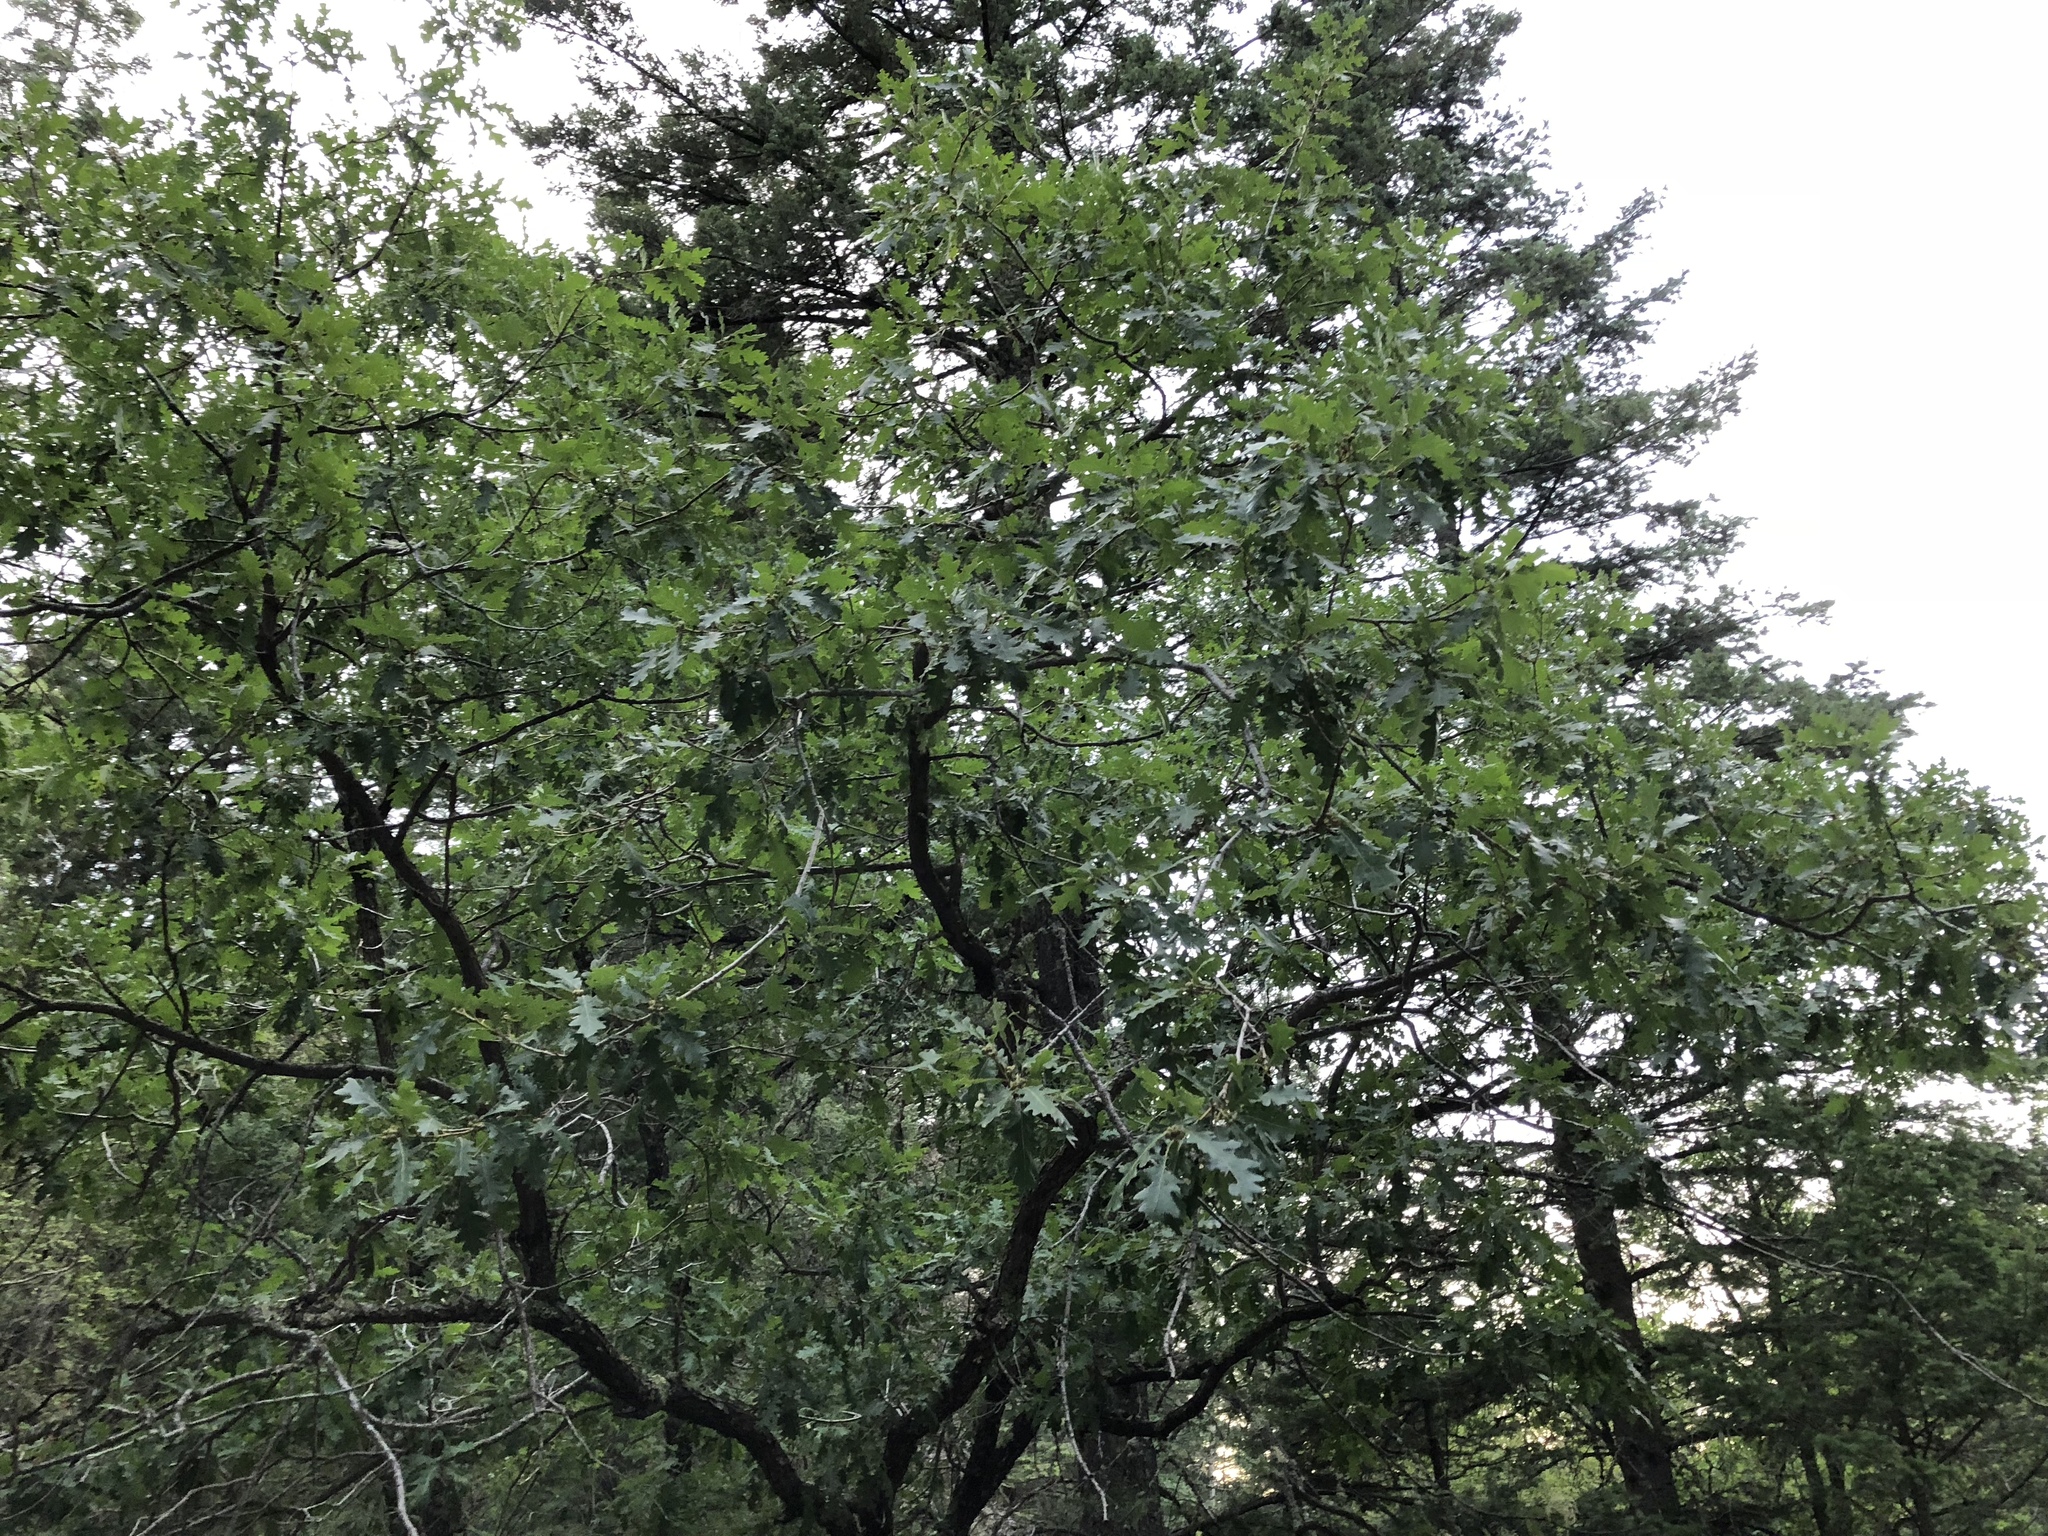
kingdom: Plantae
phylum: Tracheophyta
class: Magnoliopsida
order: Fagales
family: Fagaceae
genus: Quercus
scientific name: Quercus gambelii
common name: Gambel oak
